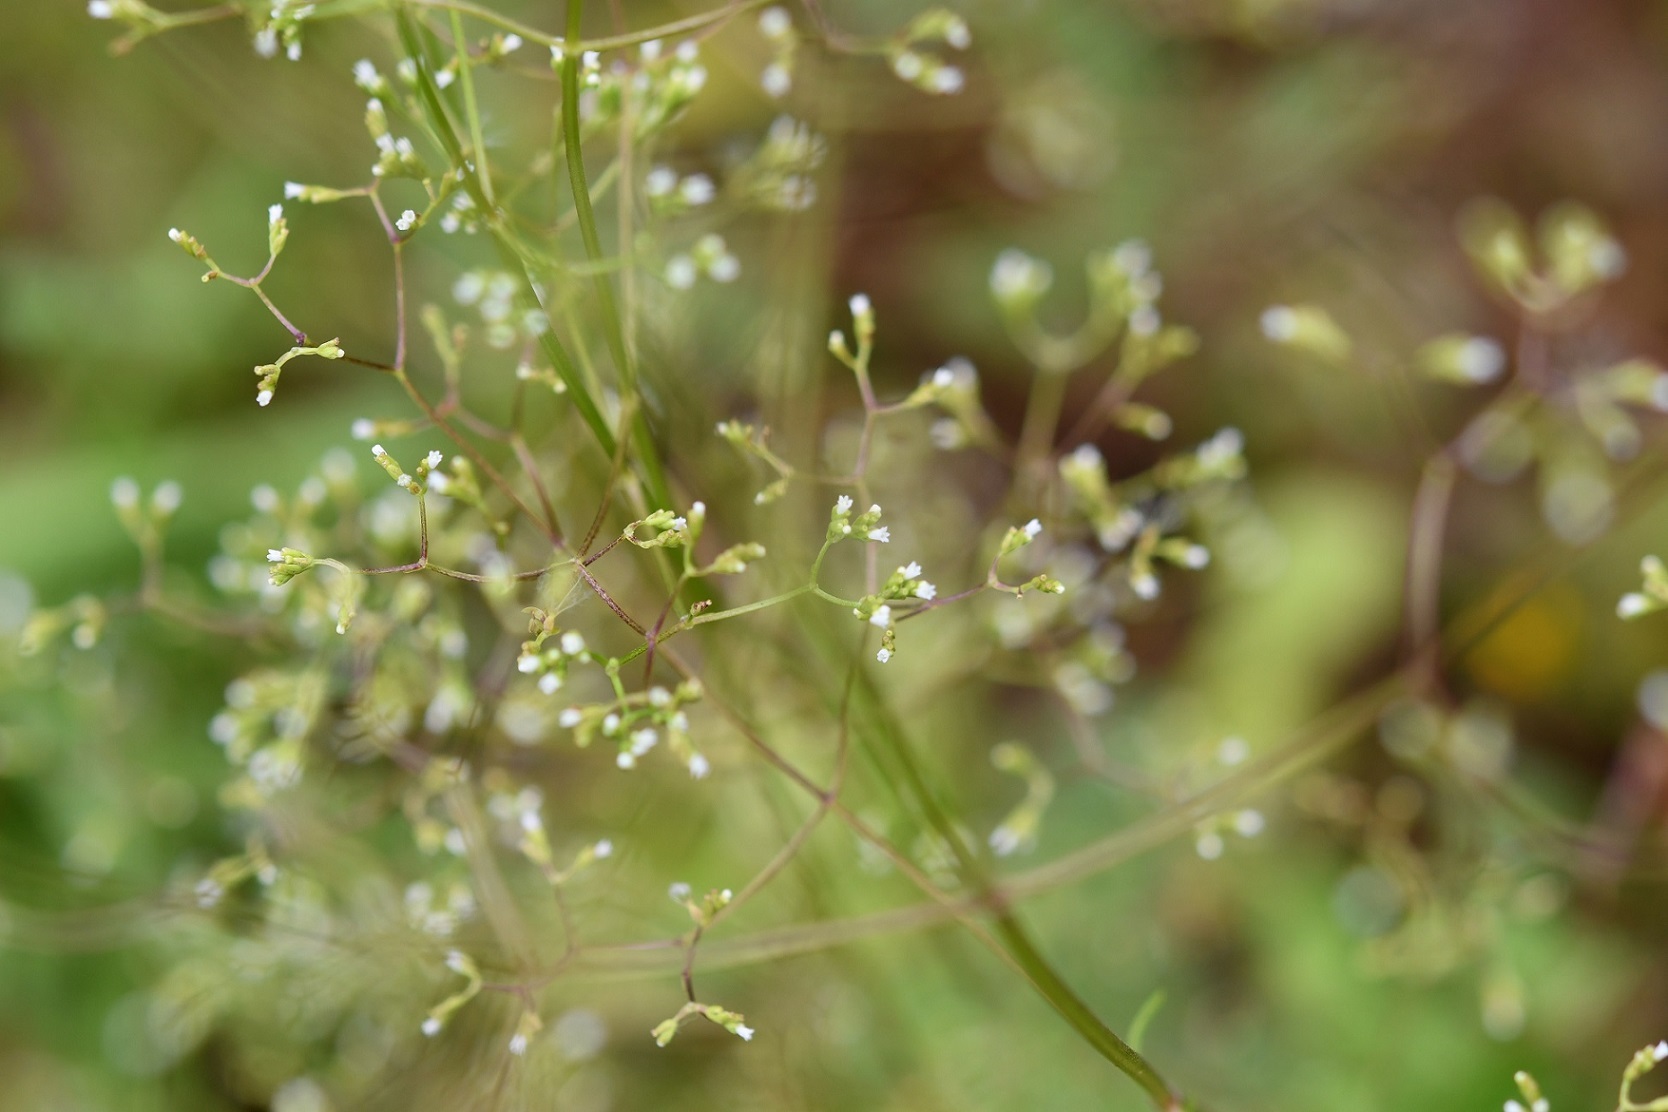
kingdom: Plantae
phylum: Tracheophyta
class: Magnoliopsida
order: Dipsacales
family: Caprifoliaceae
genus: Valeriana
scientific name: Valeriana sorbifolia
